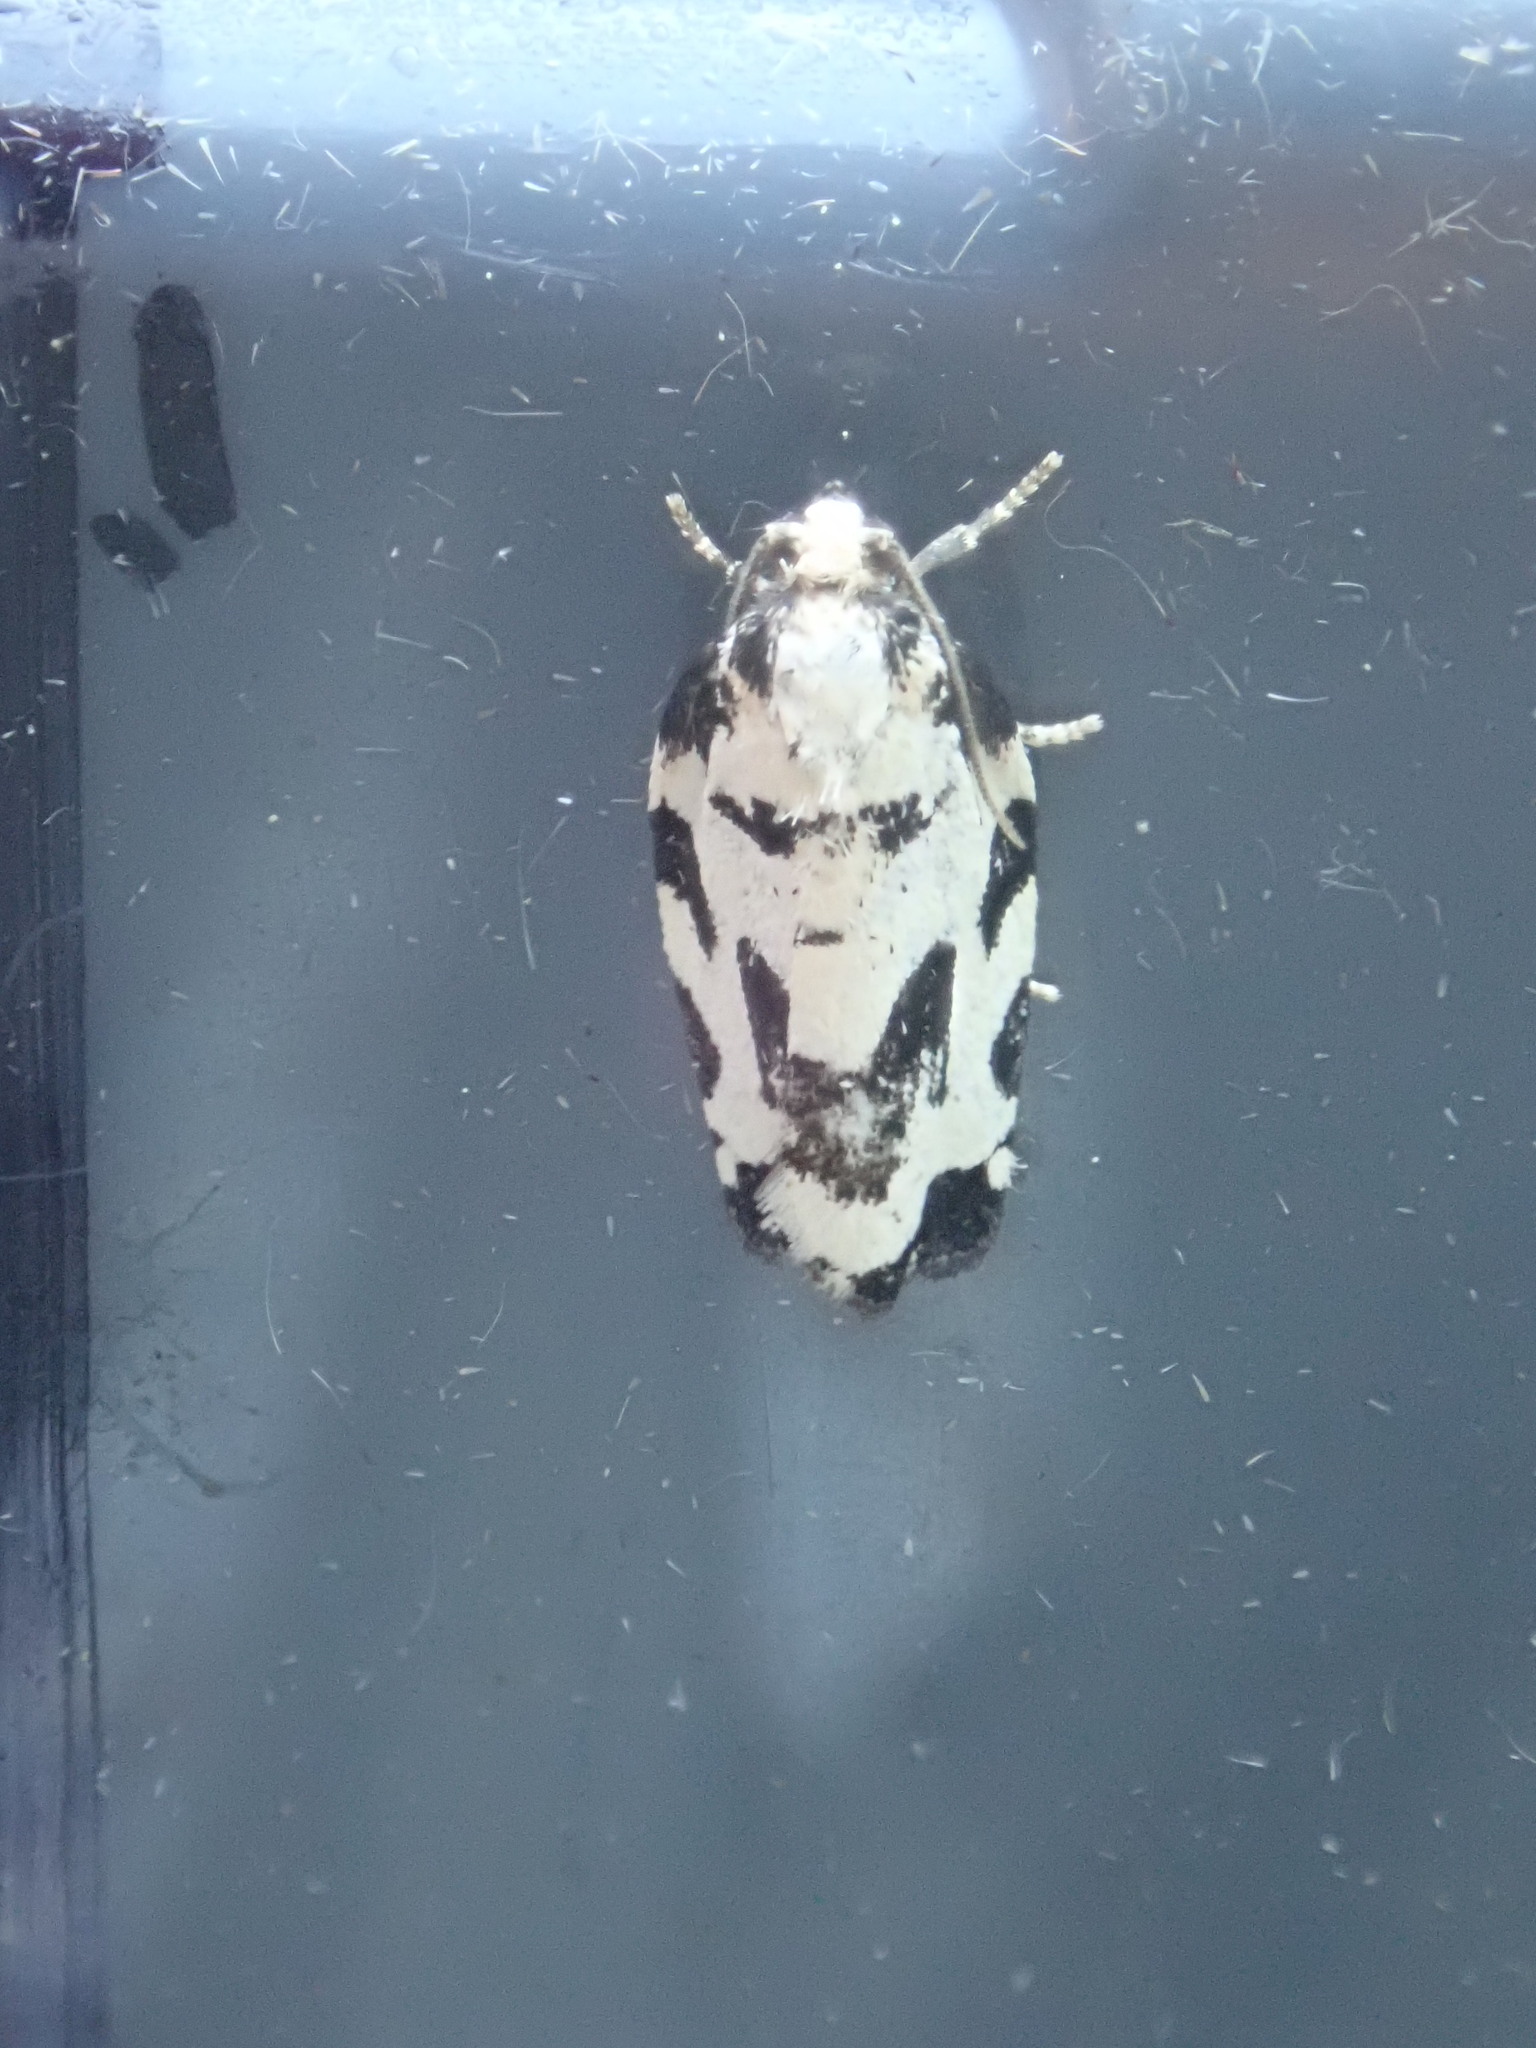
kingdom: Animalia
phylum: Arthropoda
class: Insecta
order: Lepidoptera
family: Tortricidae
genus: Archips
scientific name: Archips dissitana
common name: Boldly-marked archips moth
